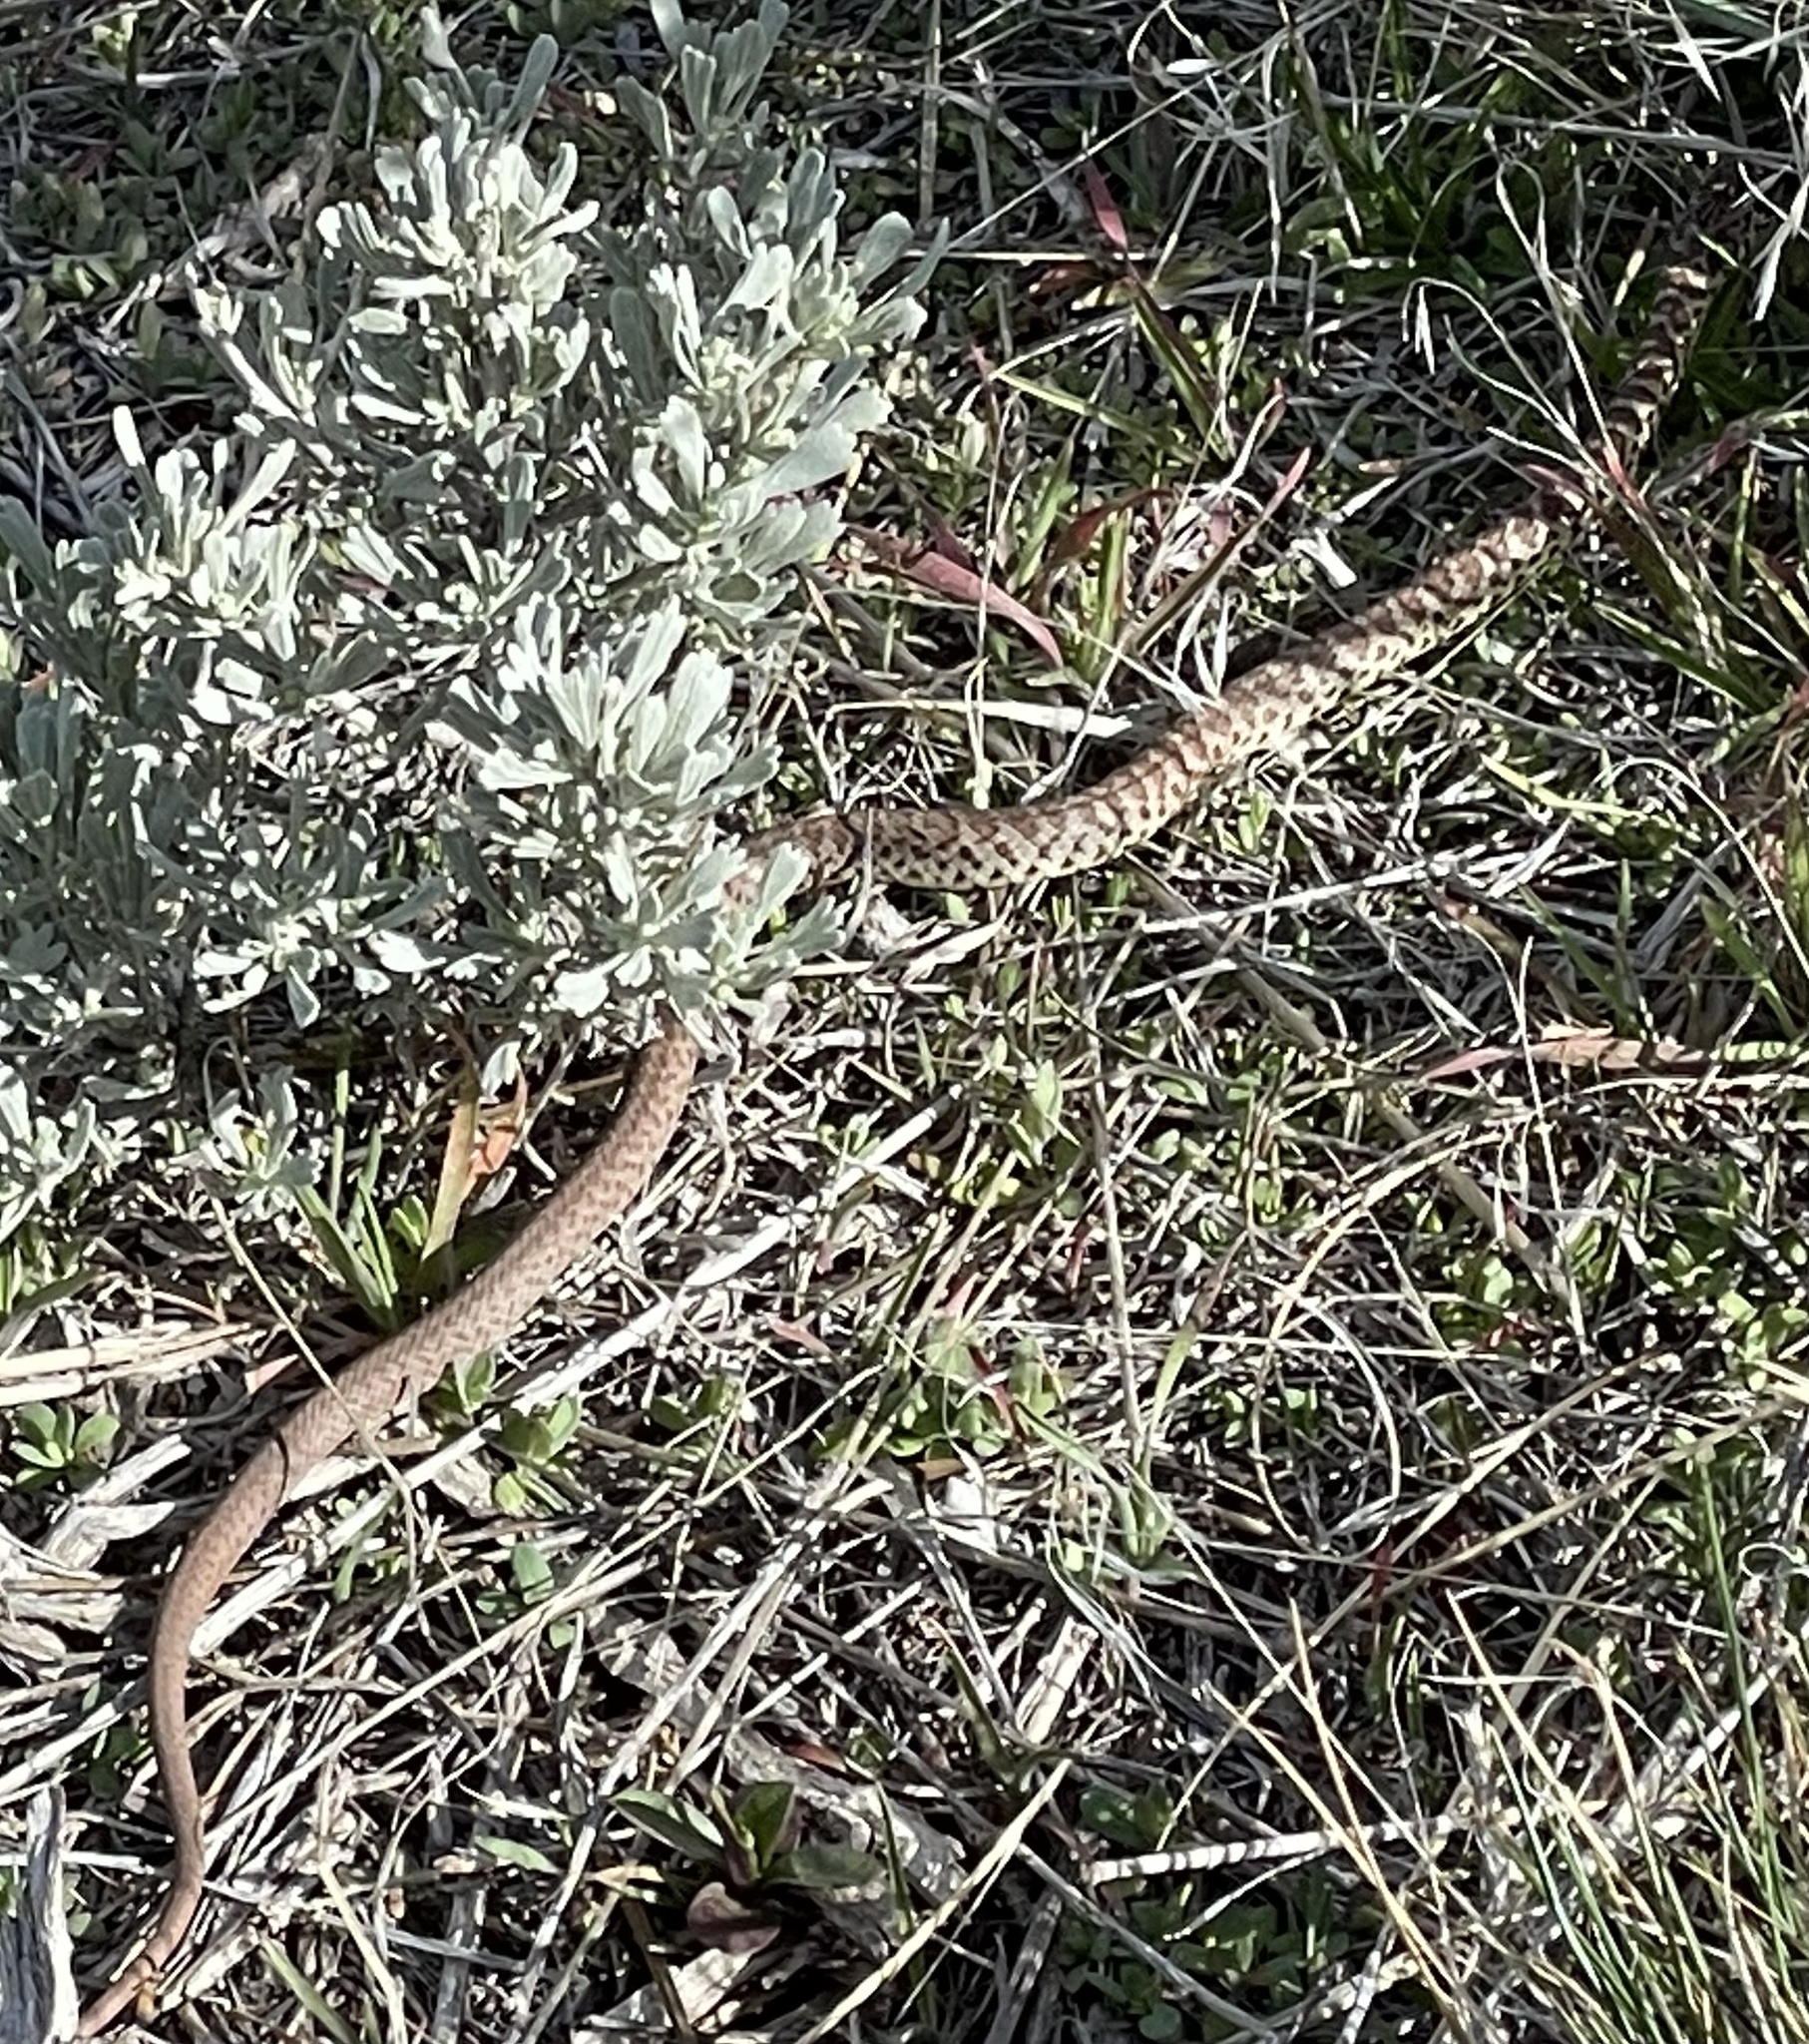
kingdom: Animalia
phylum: Chordata
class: Squamata
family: Colubridae
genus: Coluber
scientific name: Coluber constrictor
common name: Eastern racer
